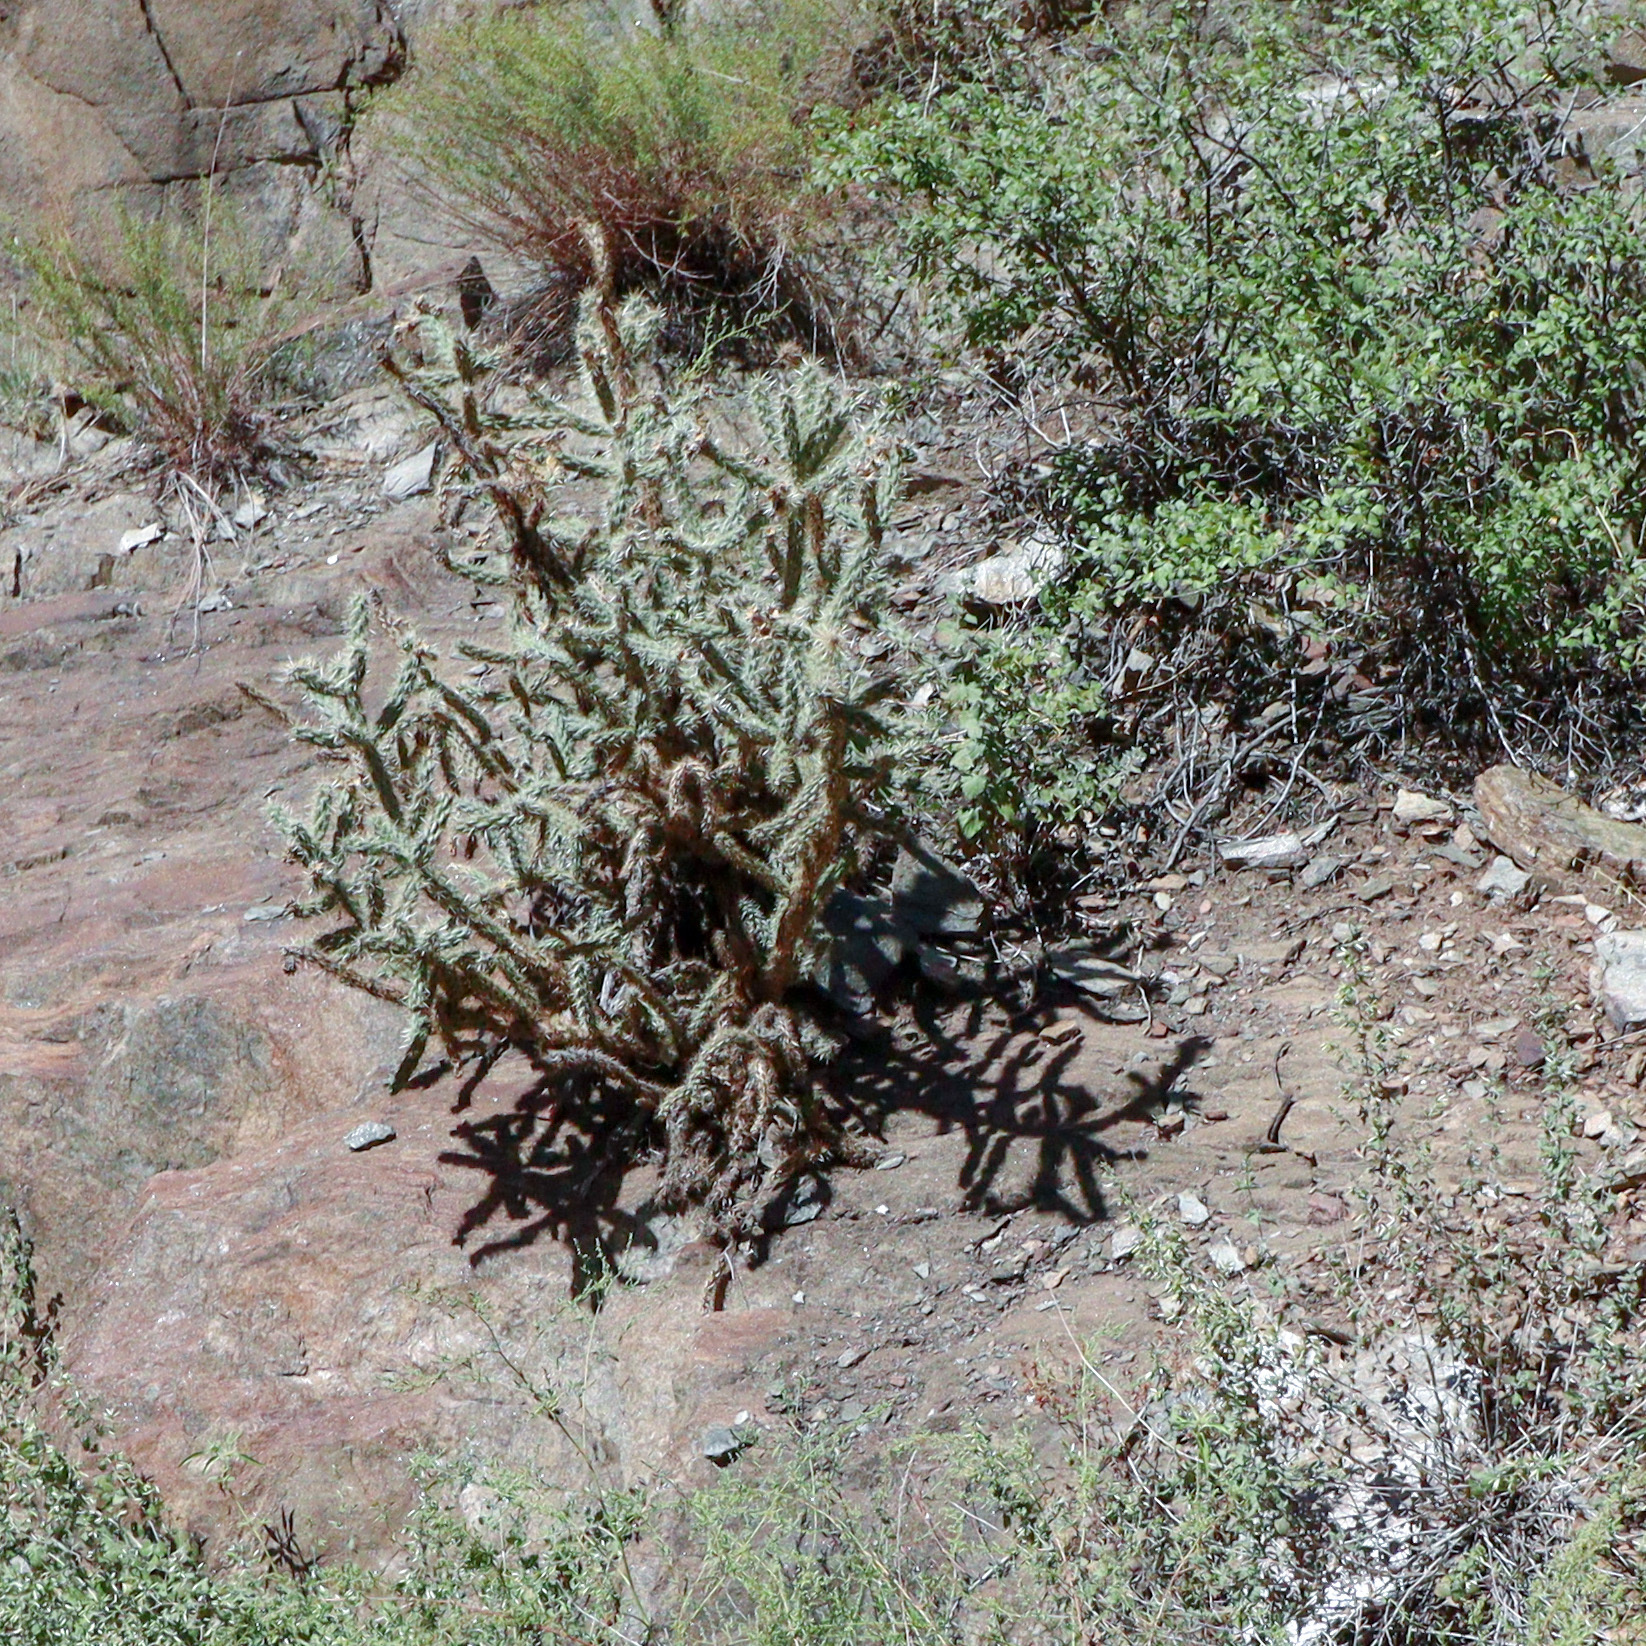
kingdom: Plantae
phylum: Tracheophyta
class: Magnoliopsida
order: Caryophyllales
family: Cactaceae
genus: Cylindropuntia
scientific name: Cylindropuntia imbricata
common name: Candelabrum cactus
